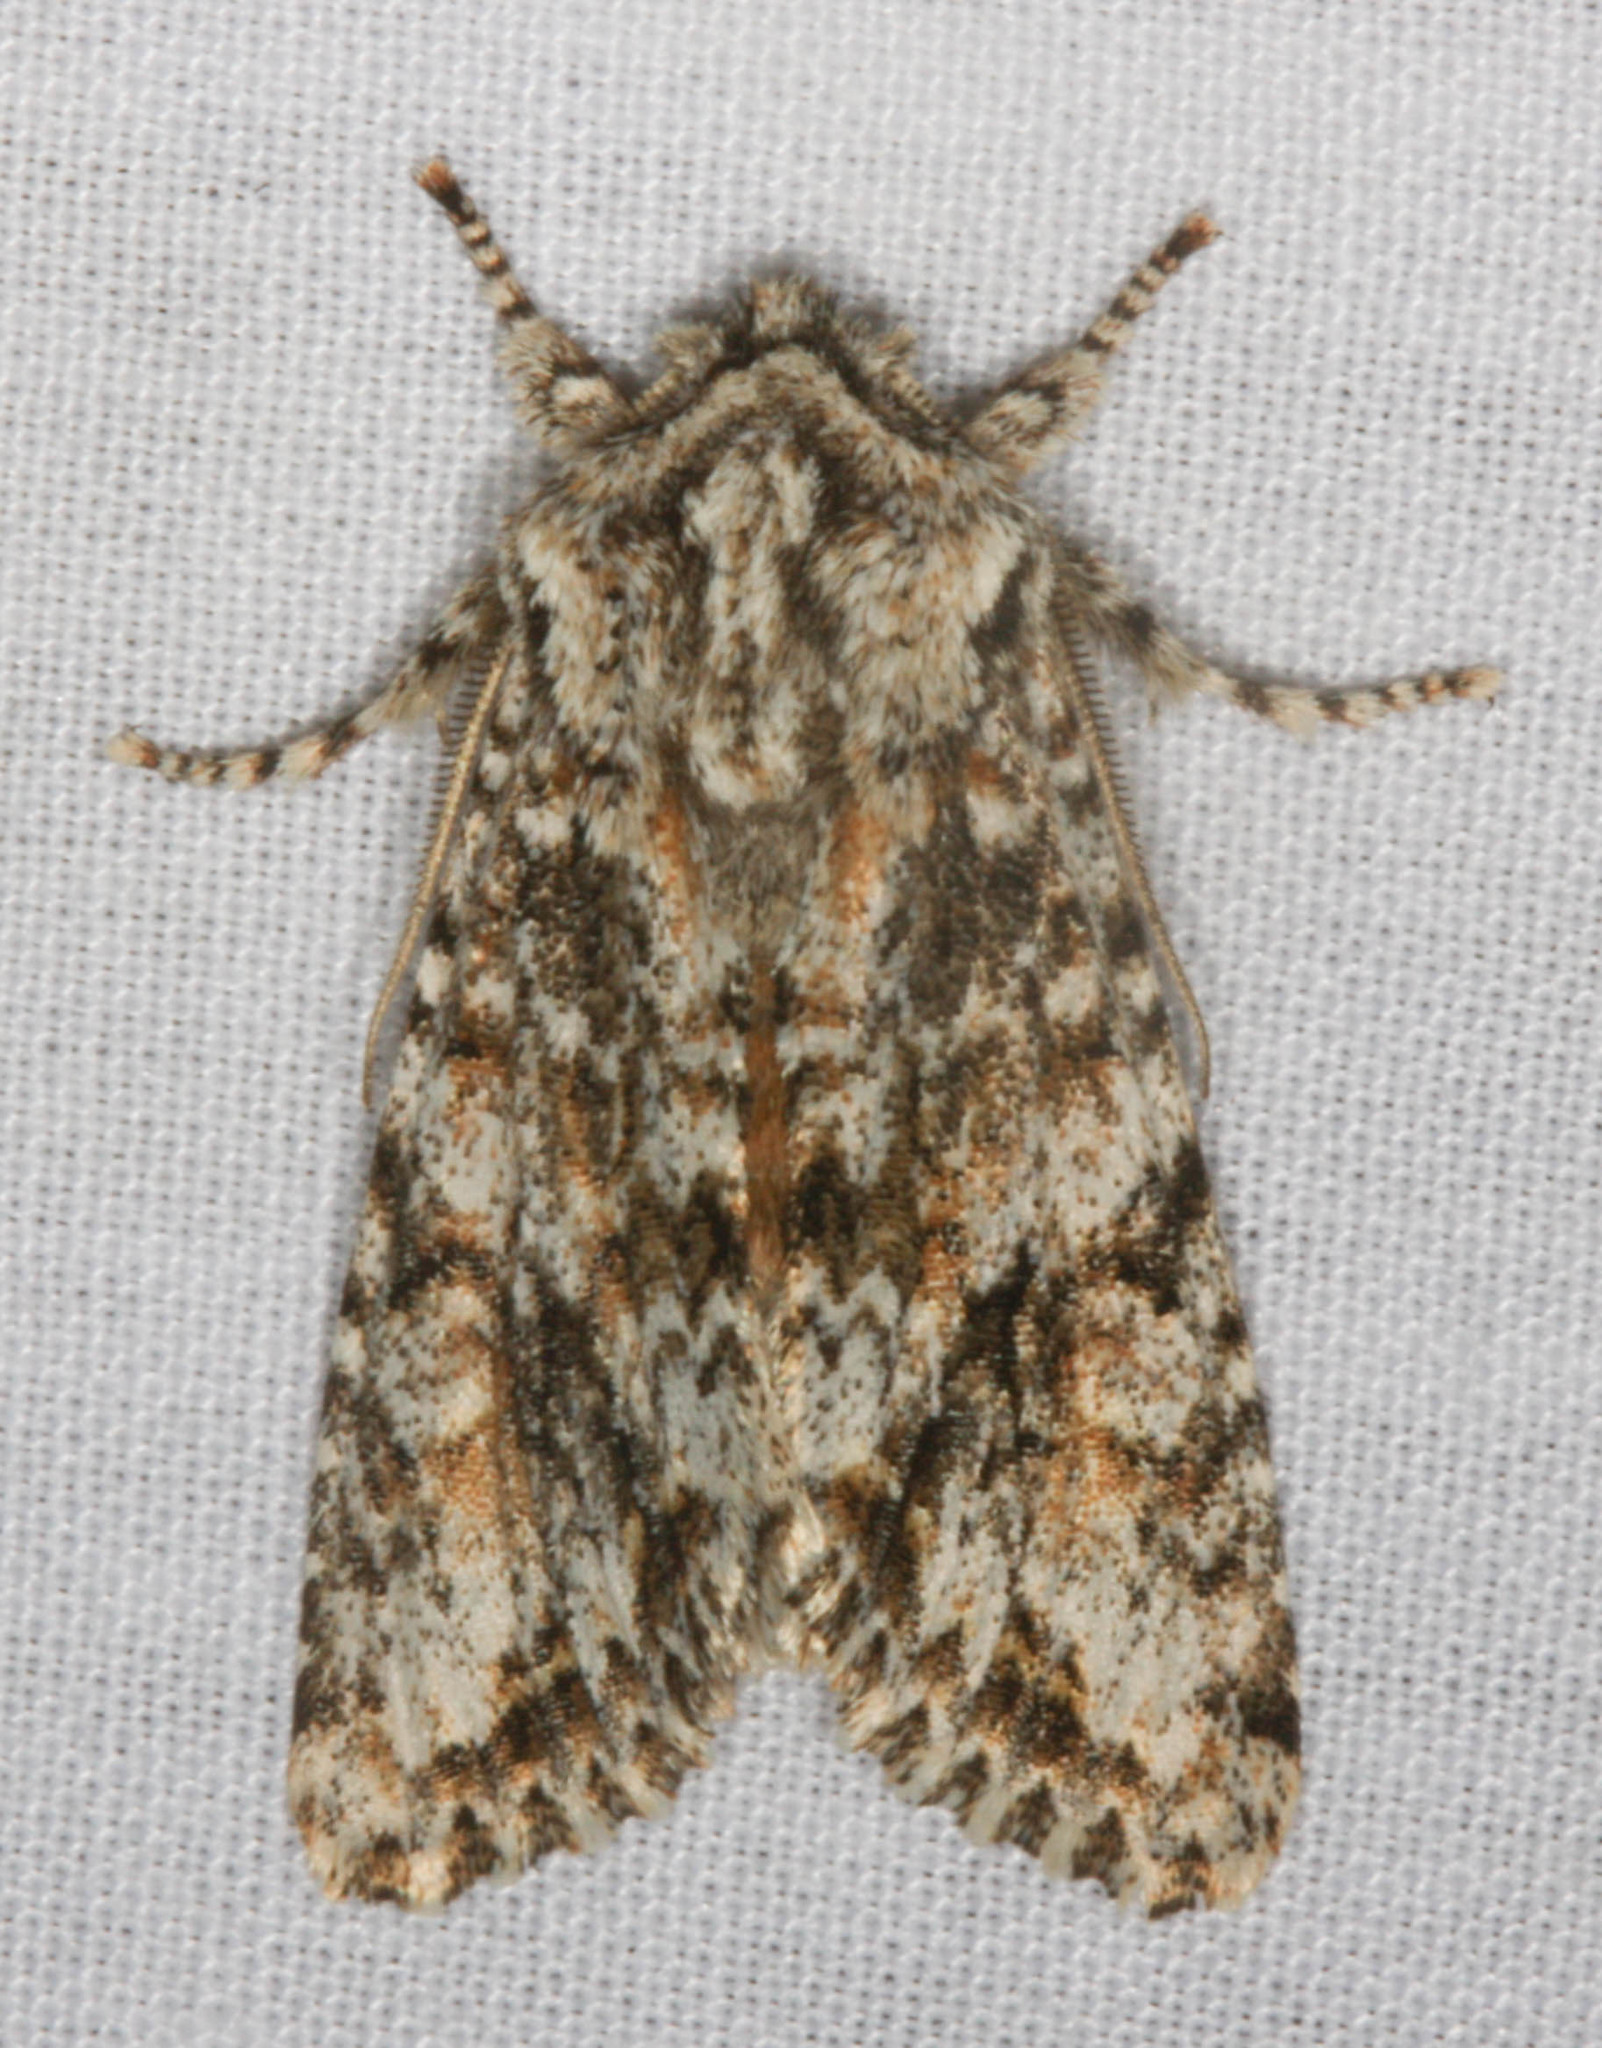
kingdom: Animalia
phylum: Arthropoda
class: Insecta
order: Lepidoptera
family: Noctuidae
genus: Egira
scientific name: Egira cognata
